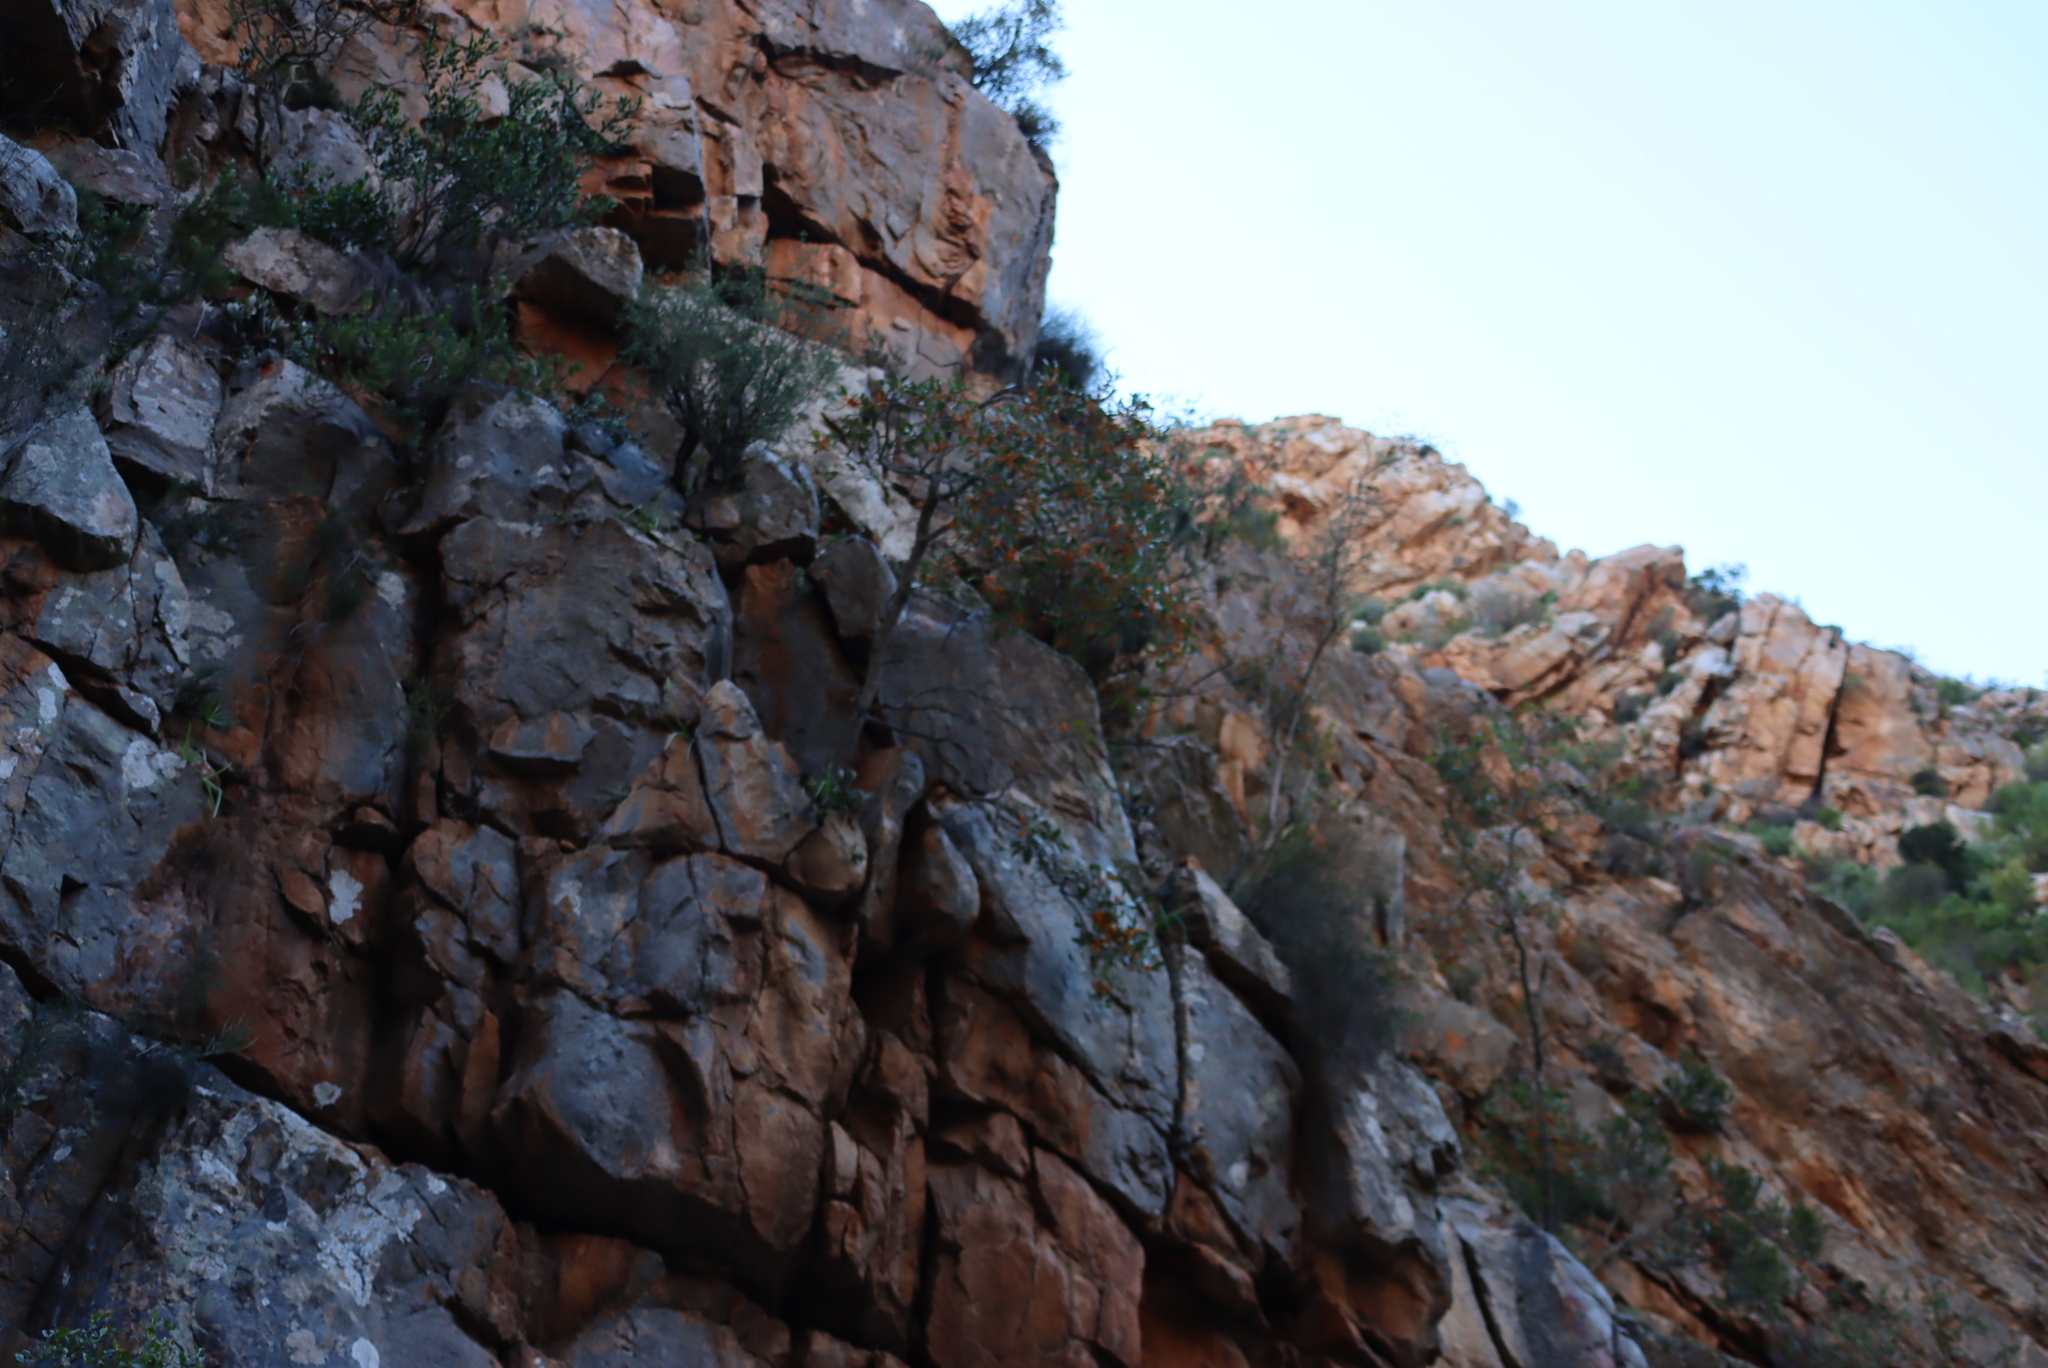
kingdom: Plantae
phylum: Tracheophyta
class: Magnoliopsida
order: Celastrales
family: Celastraceae
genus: Pterocelastrus
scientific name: Pterocelastrus tricuspidatus
